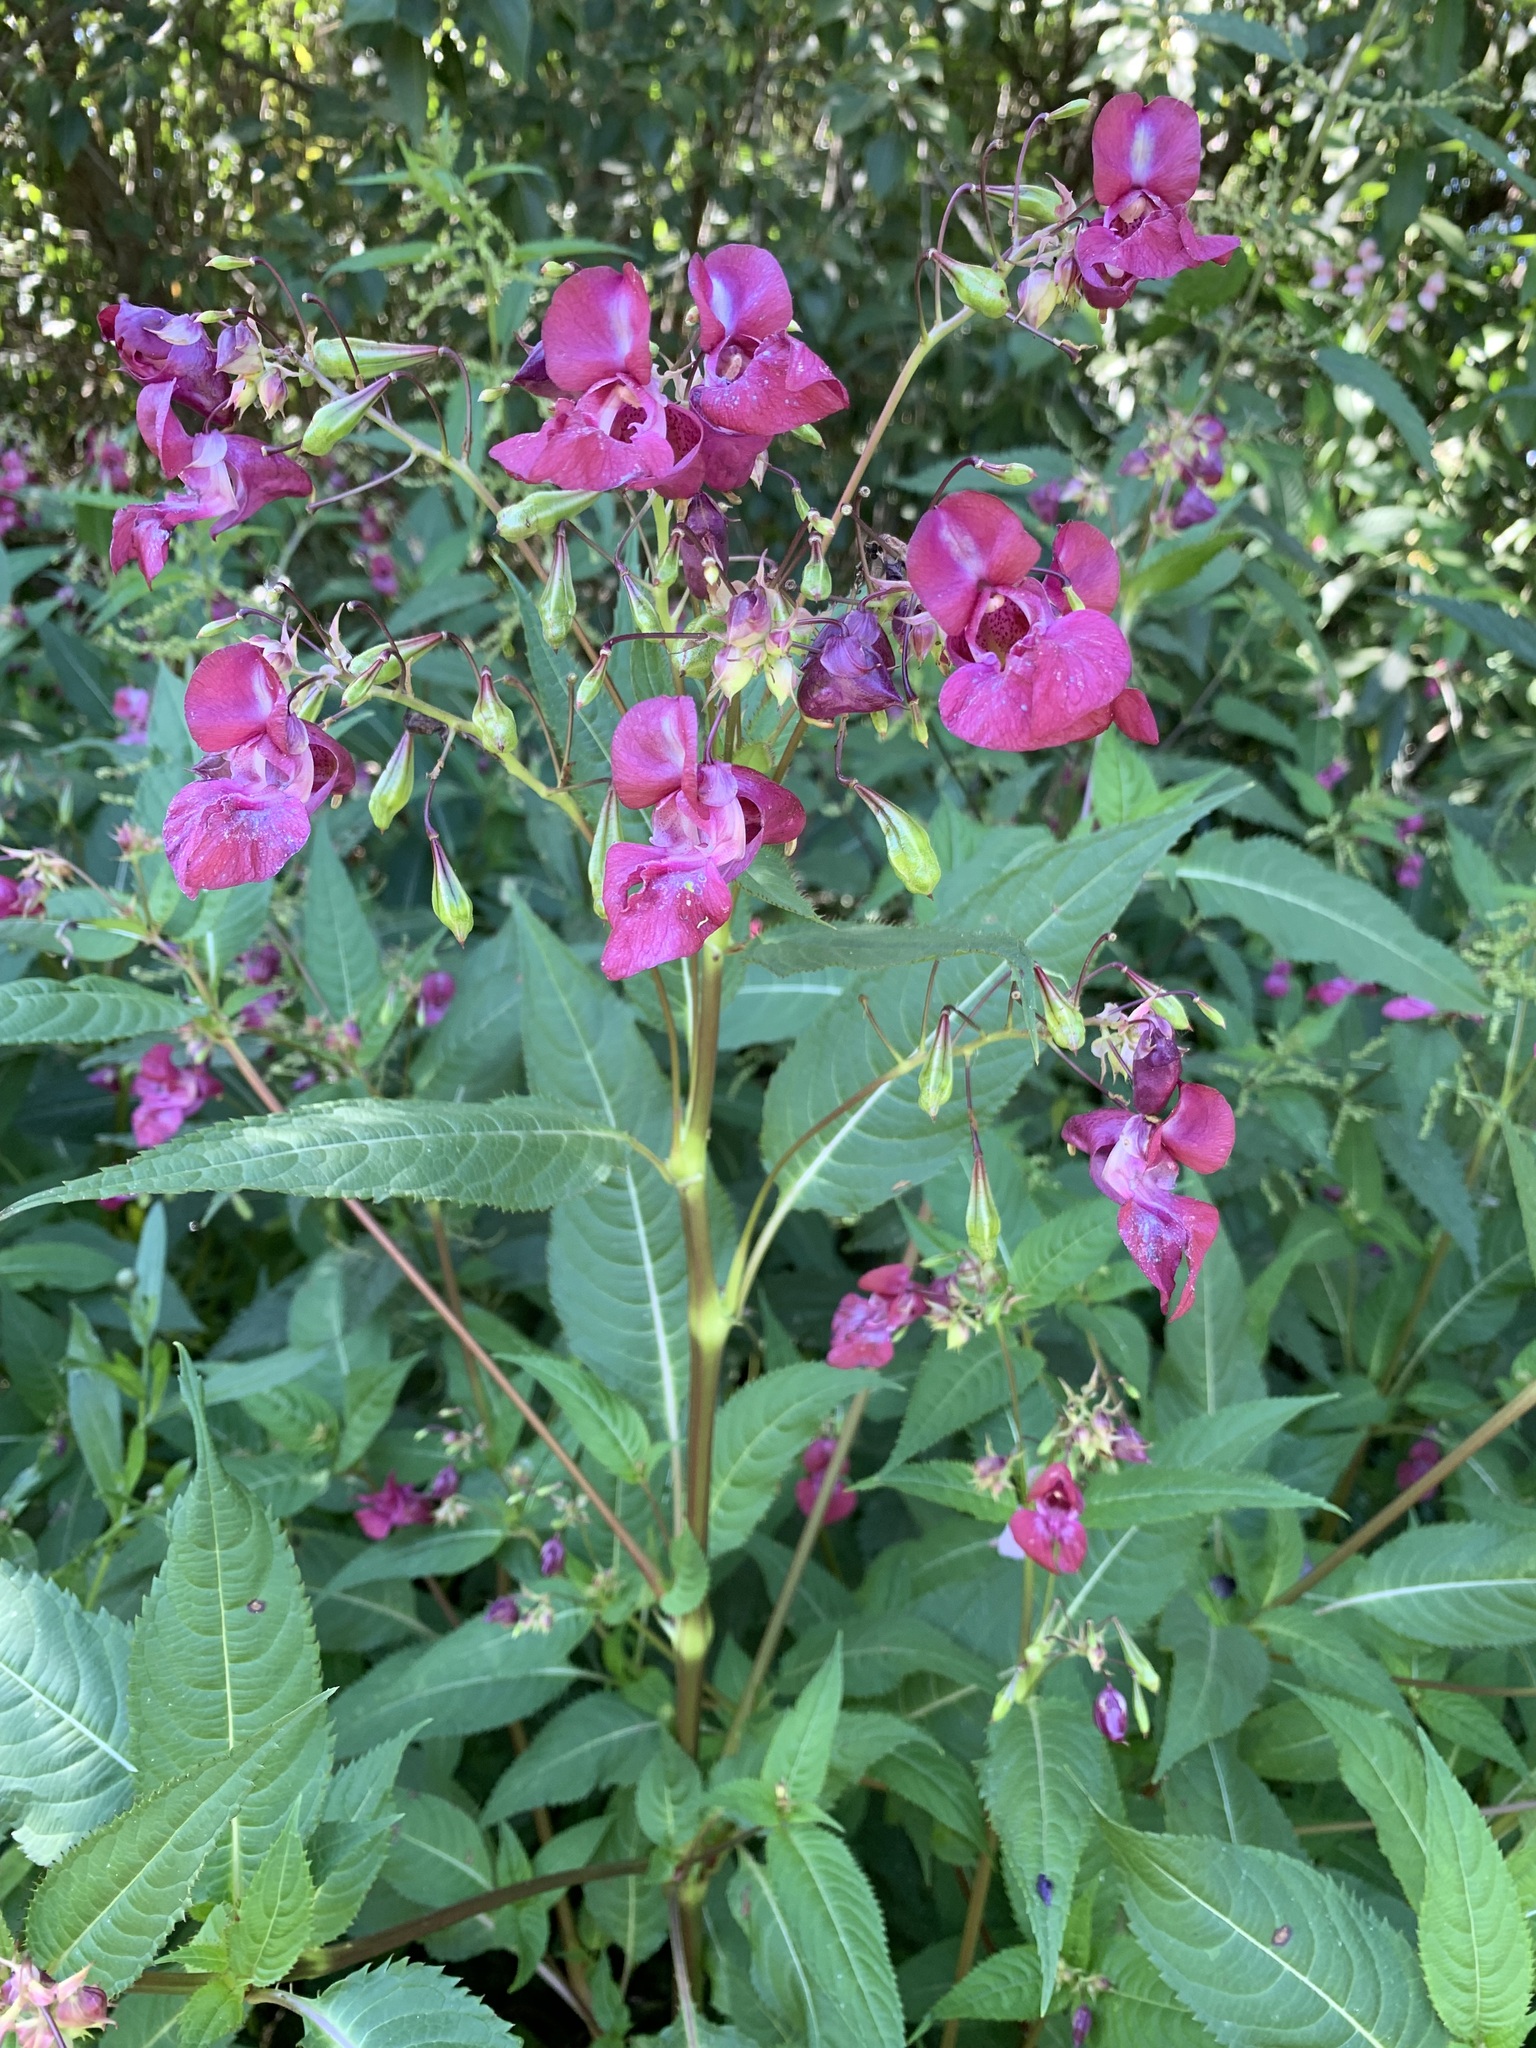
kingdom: Plantae
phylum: Tracheophyta
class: Magnoliopsida
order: Ericales
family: Balsaminaceae
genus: Impatiens
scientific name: Impatiens glandulifera
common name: Himalayan balsam
